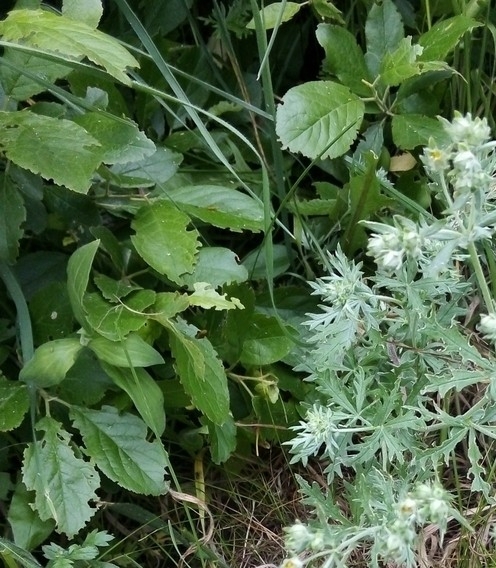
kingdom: Plantae
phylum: Tracheophyta
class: Magnoliopsida
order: Rosales
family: Rosaceae
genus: Prunus
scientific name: Prunus cerasus
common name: Morello cherry
